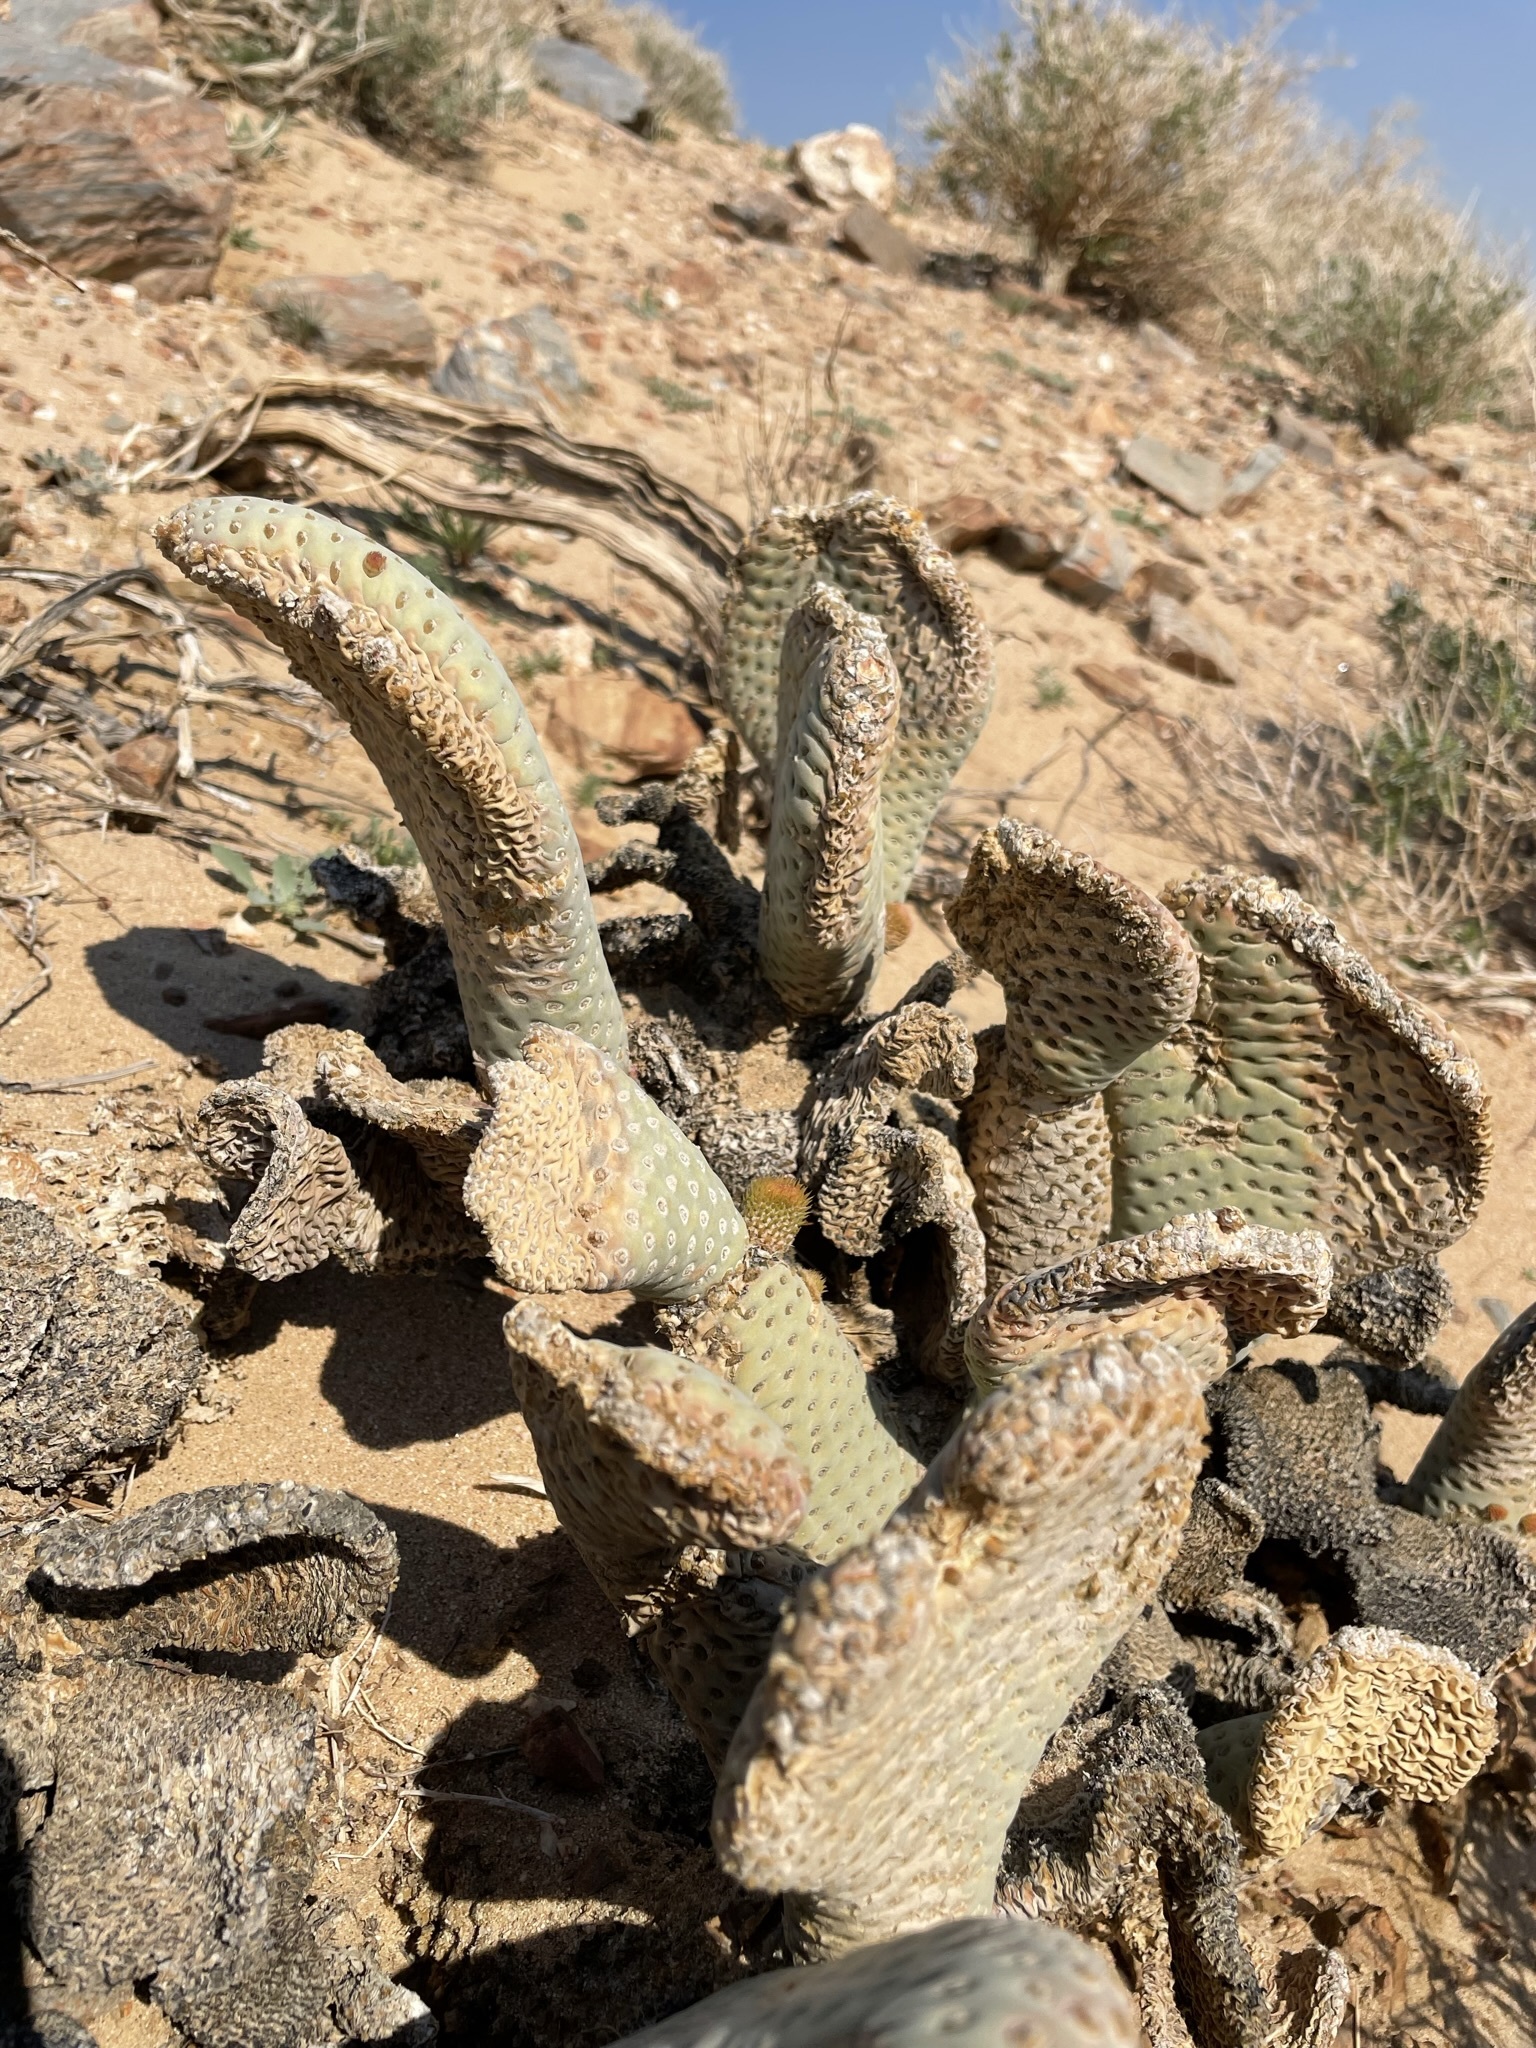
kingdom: Plantae
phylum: Tracheophyta
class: Magnoliopsida
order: Caryophyllales
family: Cactaceae
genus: Opuntia
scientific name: Opuntia basilaris
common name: Beavertail prickly-pear
